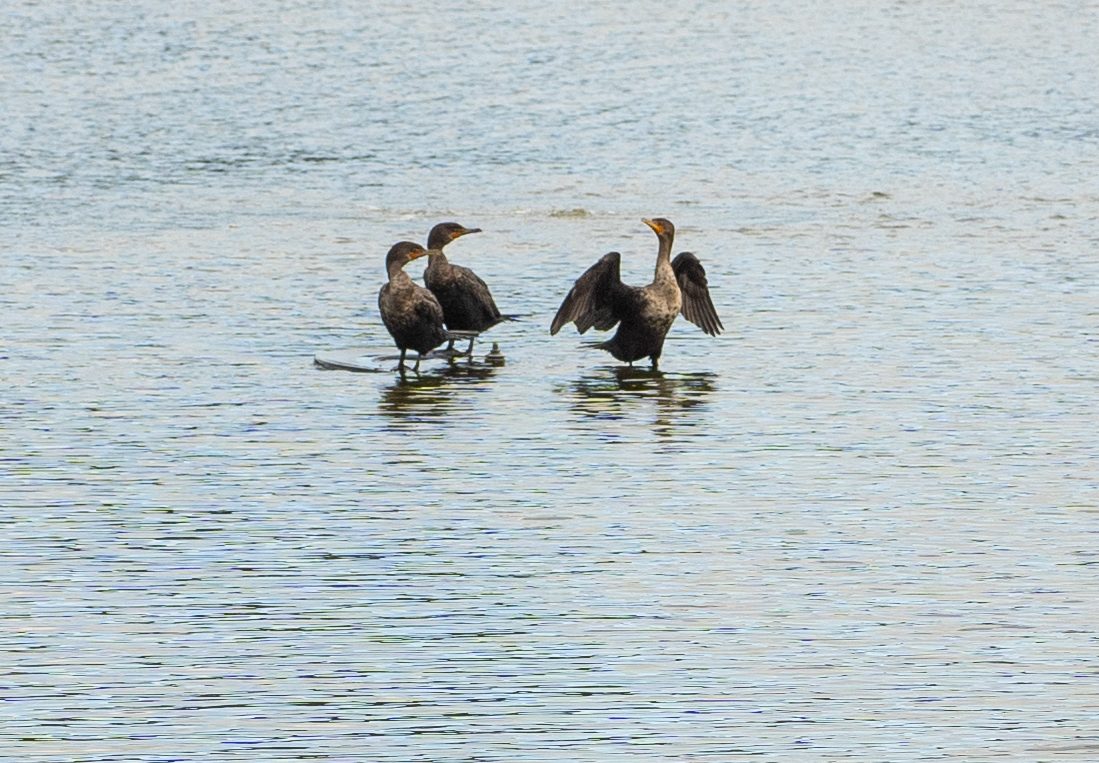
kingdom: Animalia
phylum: Chordata
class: Aves
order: Suliformes
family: Phalacrocoracidae
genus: Phalacrocorax
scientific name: Phalacrocorax auritus
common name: Double-crested cormorant
